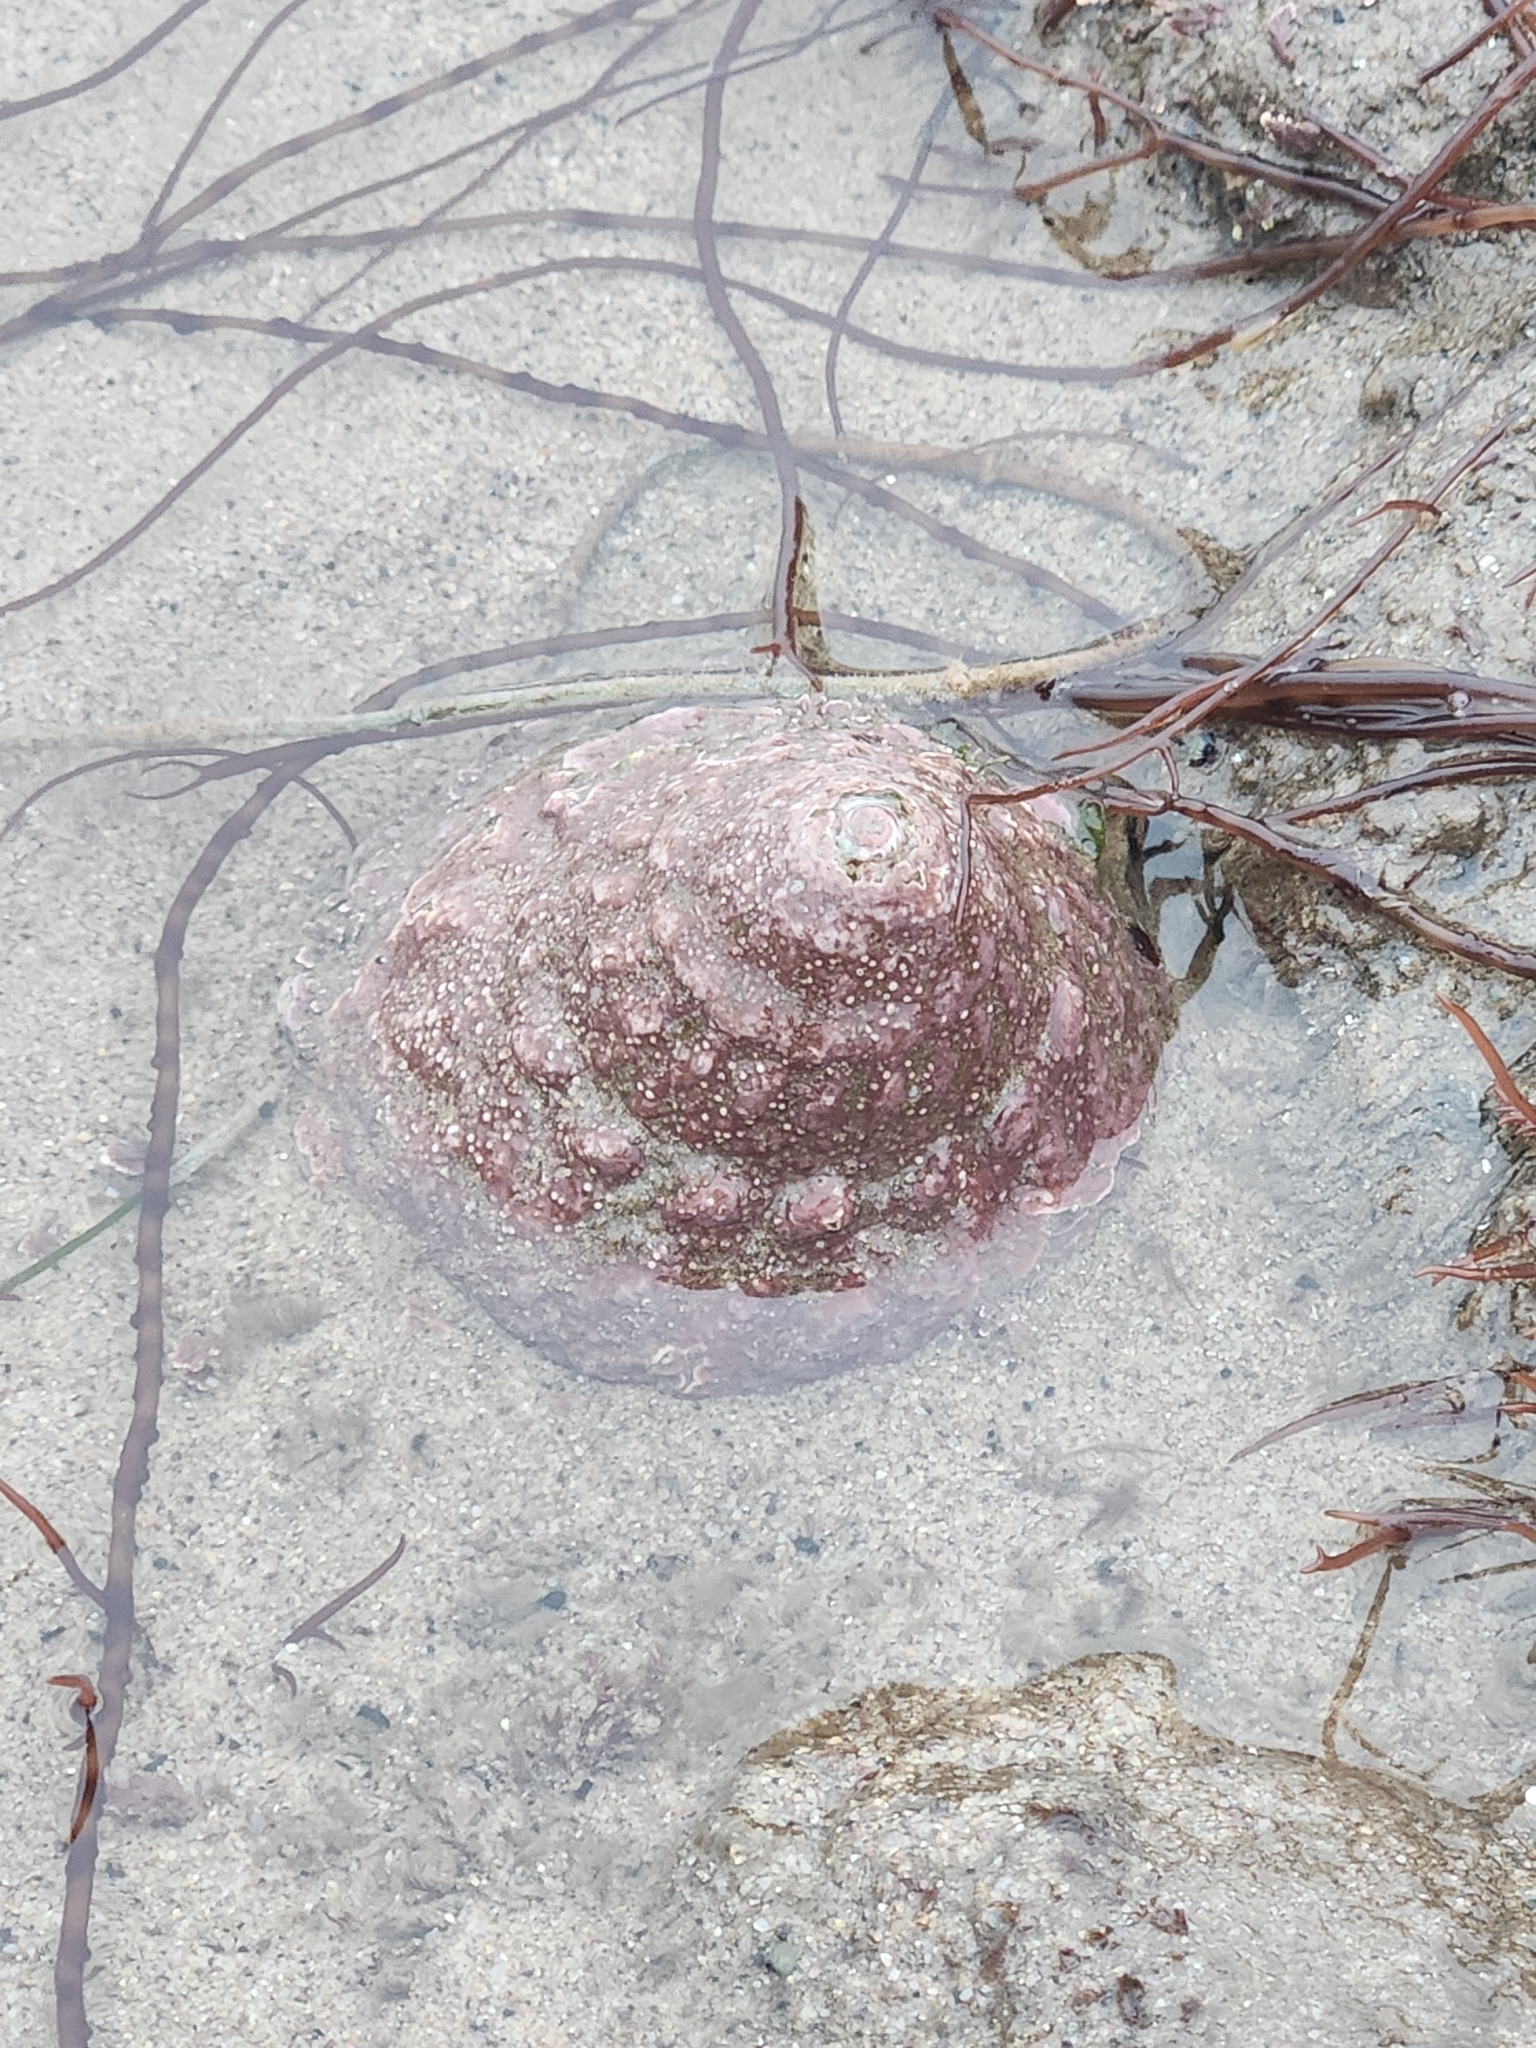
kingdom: Animalia
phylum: Mollusca
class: Gastropoda
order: Trochida
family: Turbinidae
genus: Megastraea
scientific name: Megastraea undosa
